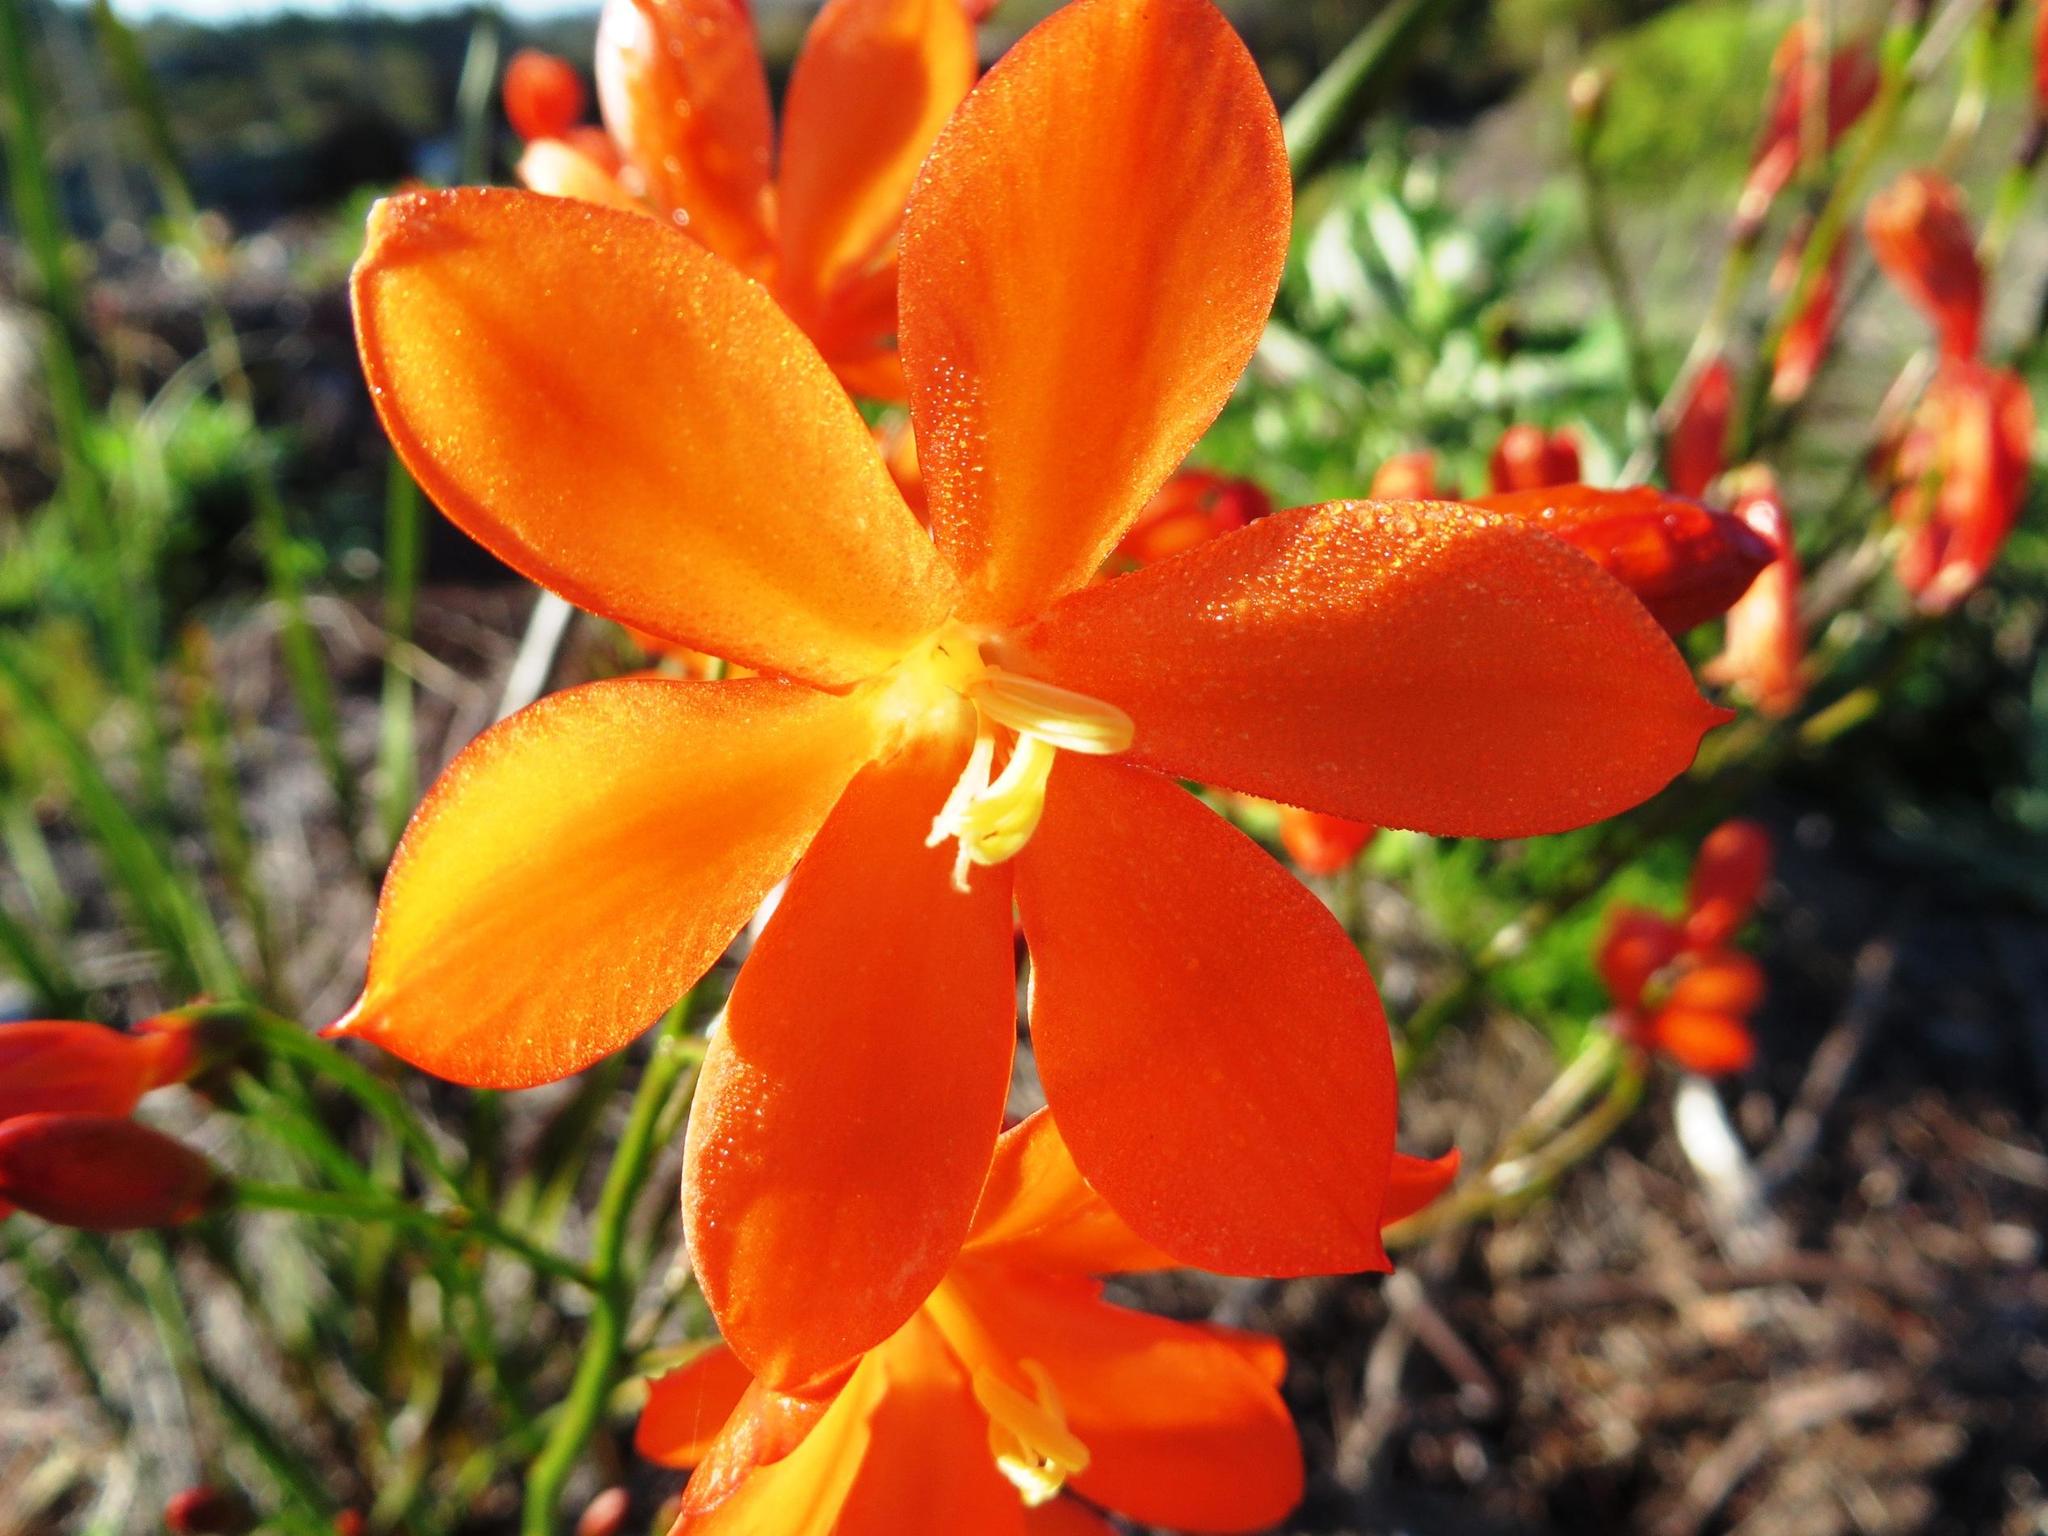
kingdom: Plantae
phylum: Tracheophyta
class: Liliopsida
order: Asparagales
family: Iridaceae
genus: Pillansia
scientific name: Pillansia templemannii
